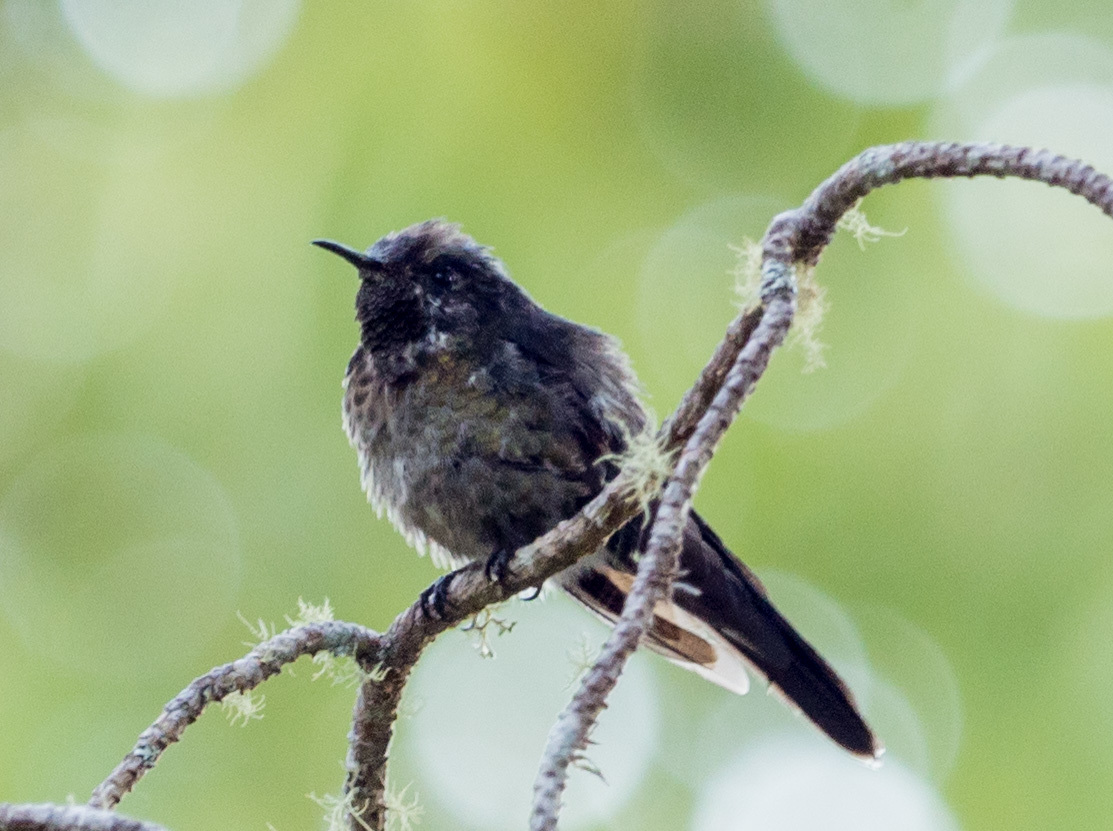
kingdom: Animalia
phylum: Chordata
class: Aves
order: Apodiformes
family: Trochilidae
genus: Ramphomicron
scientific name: Ramphomicron dorsale
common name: Black-backed thornbill
